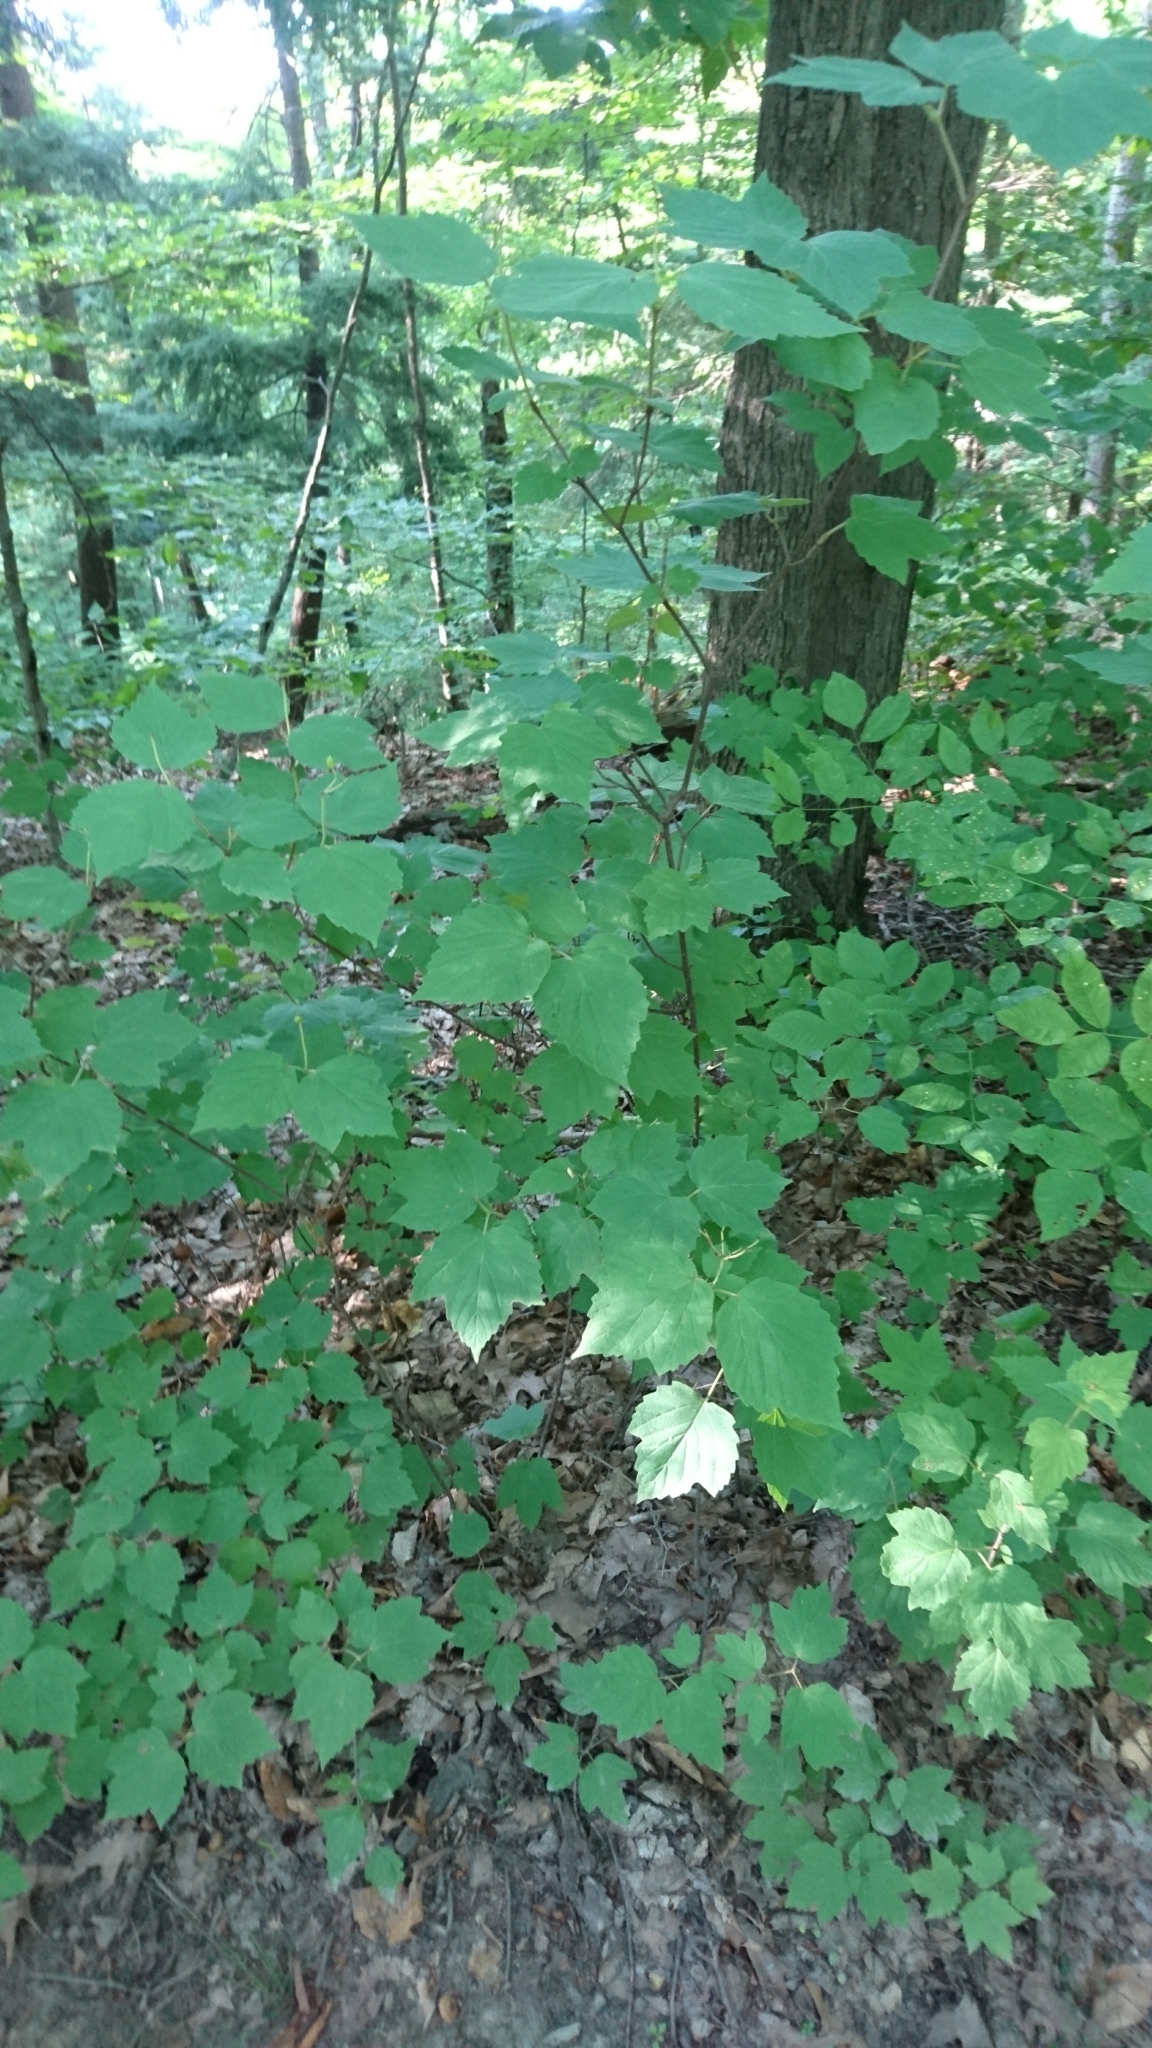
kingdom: Plantae
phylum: Tracheophyta
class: Magnoliopsida
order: Dipsacales
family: Viburnaceae
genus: Viburnum
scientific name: Viburnum acerifolium
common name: Dockmackie
